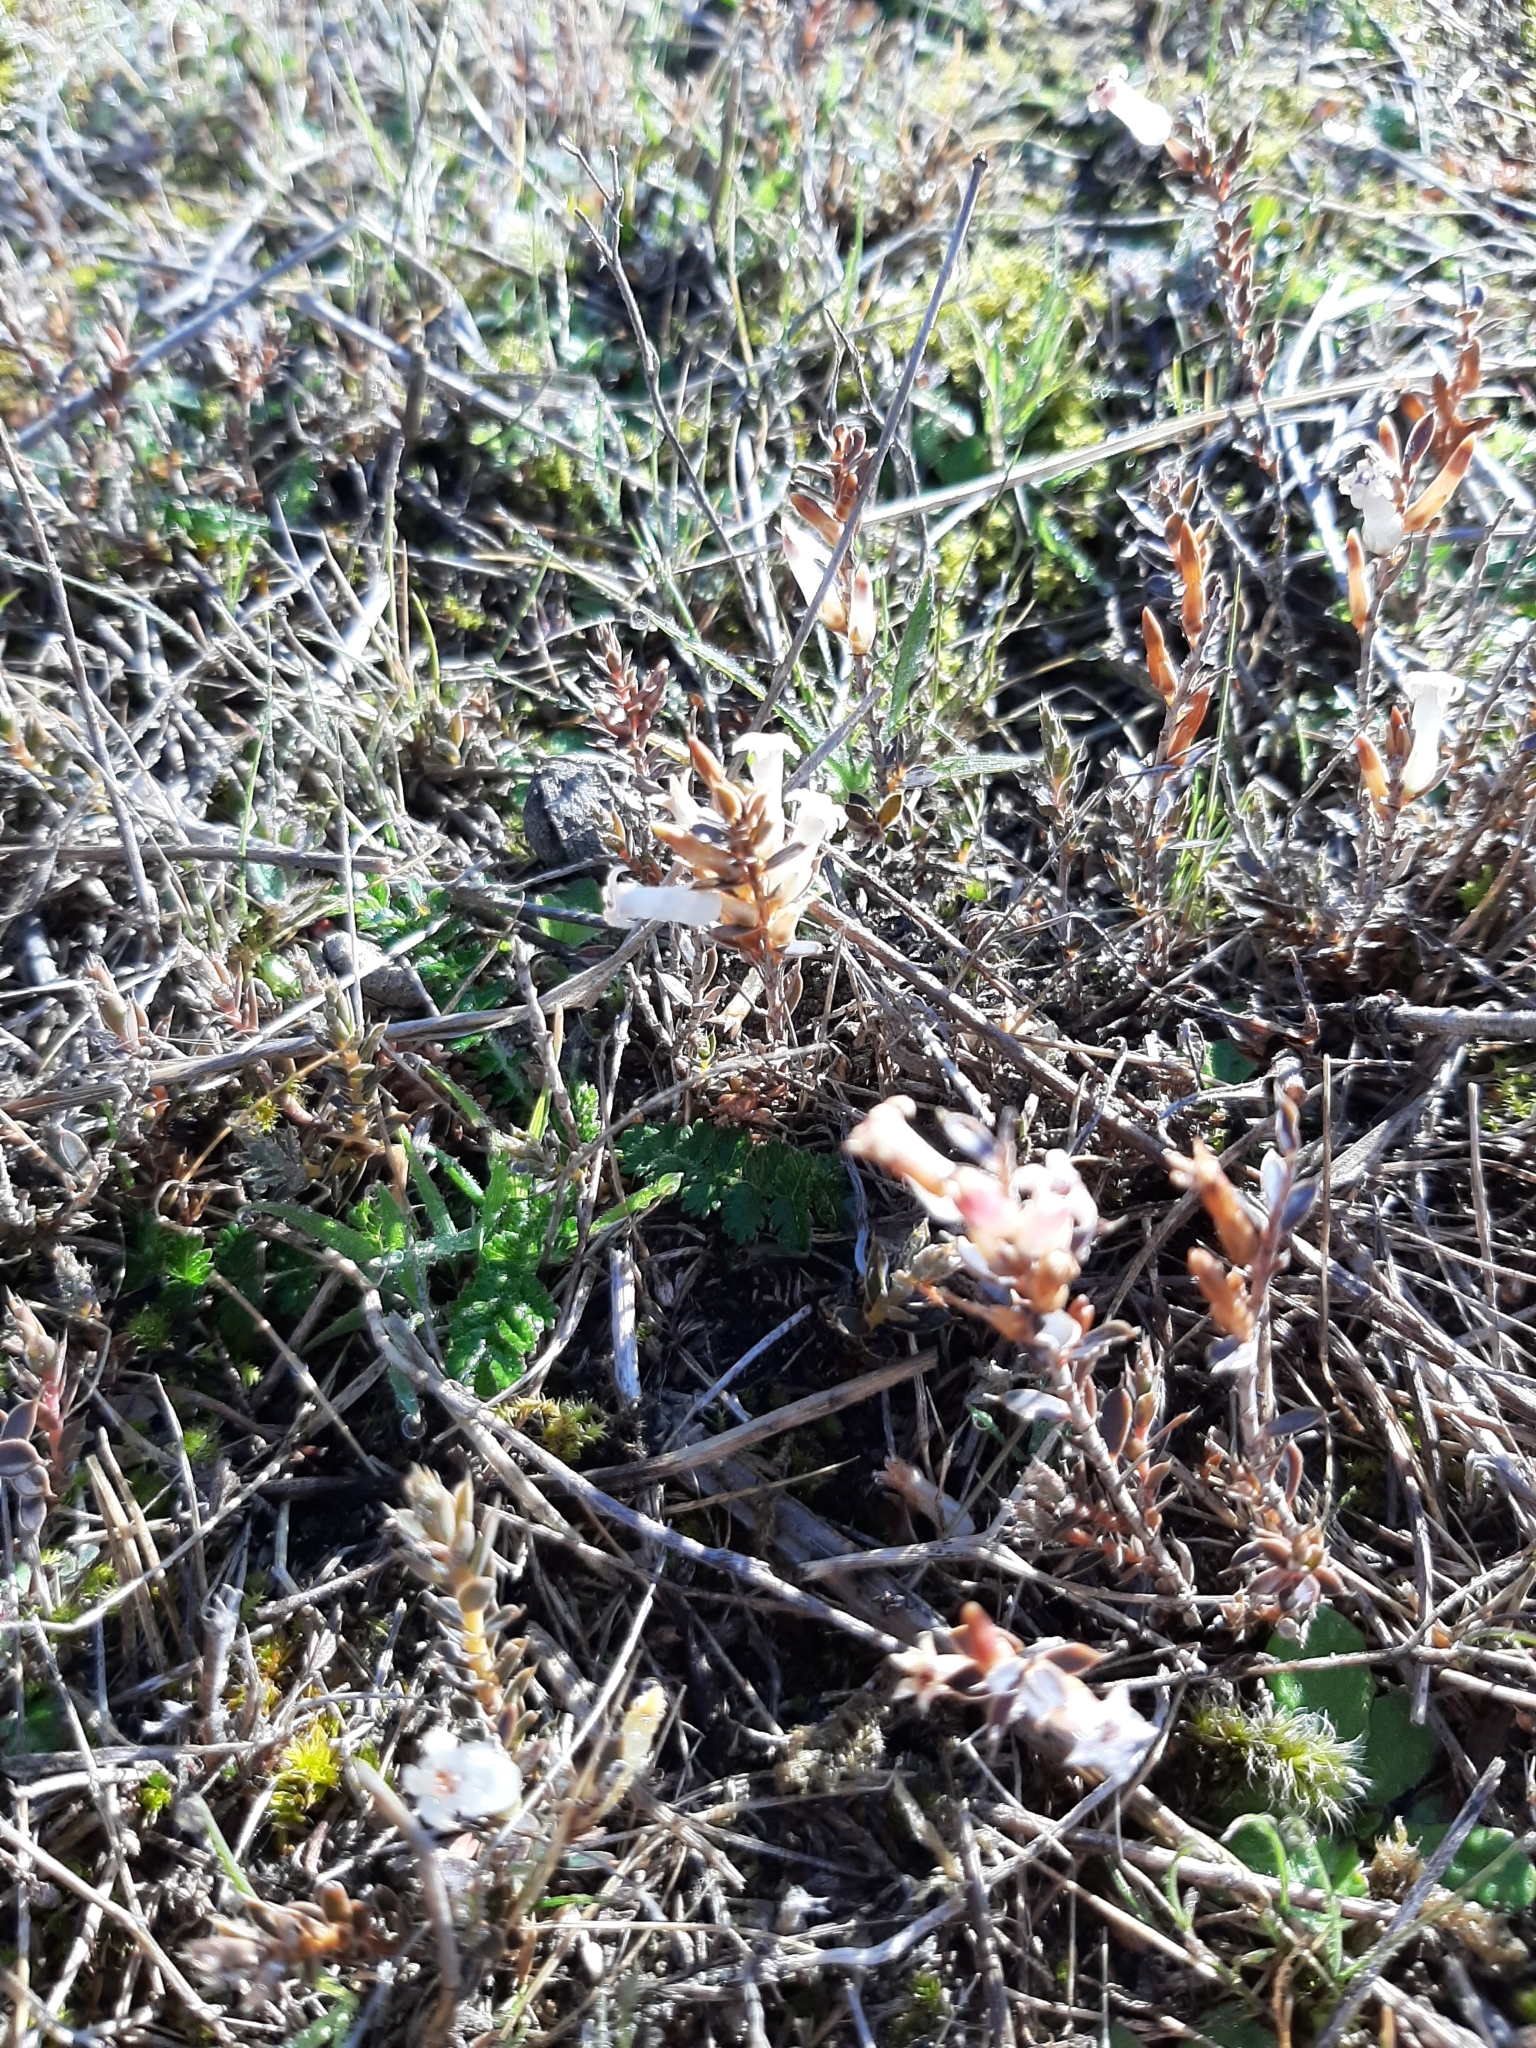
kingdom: Plantae
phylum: Tracheophyta
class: Magnoliopsida
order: Ericales
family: Ericaceae
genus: Styphelia
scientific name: Styphelia nesophila
